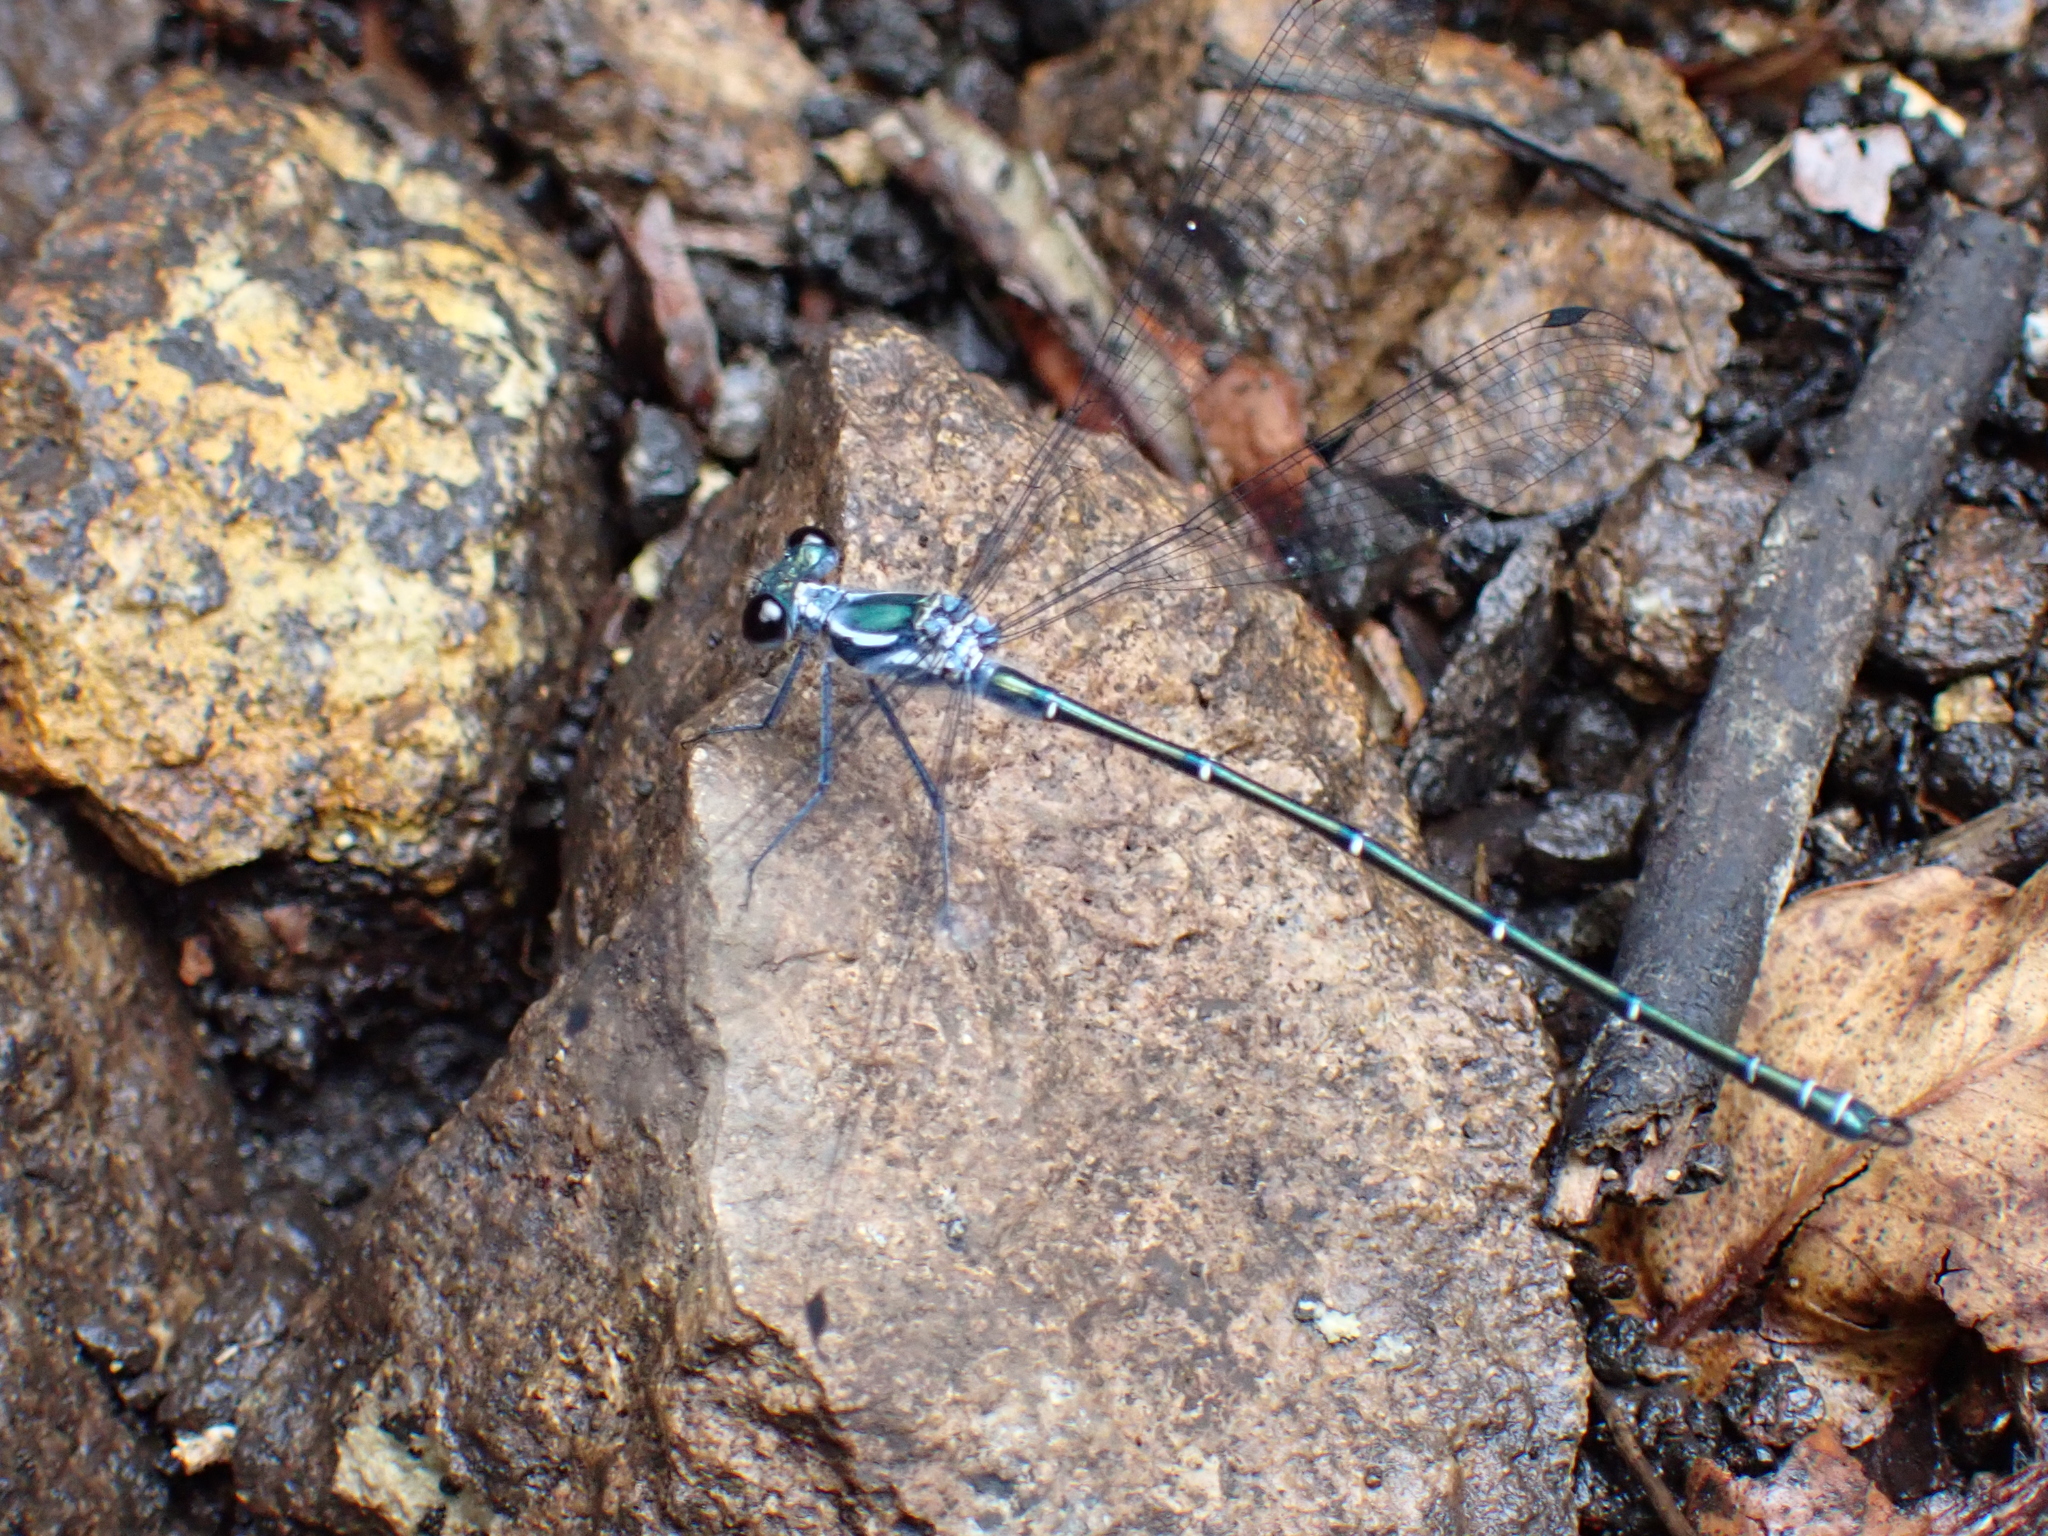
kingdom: Animalia
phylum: Arthropoda
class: Insecta
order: Odonata
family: Argiolestidae
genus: Austroargiolestes
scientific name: Austroargiolestes icteromelas
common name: Common flatwing
